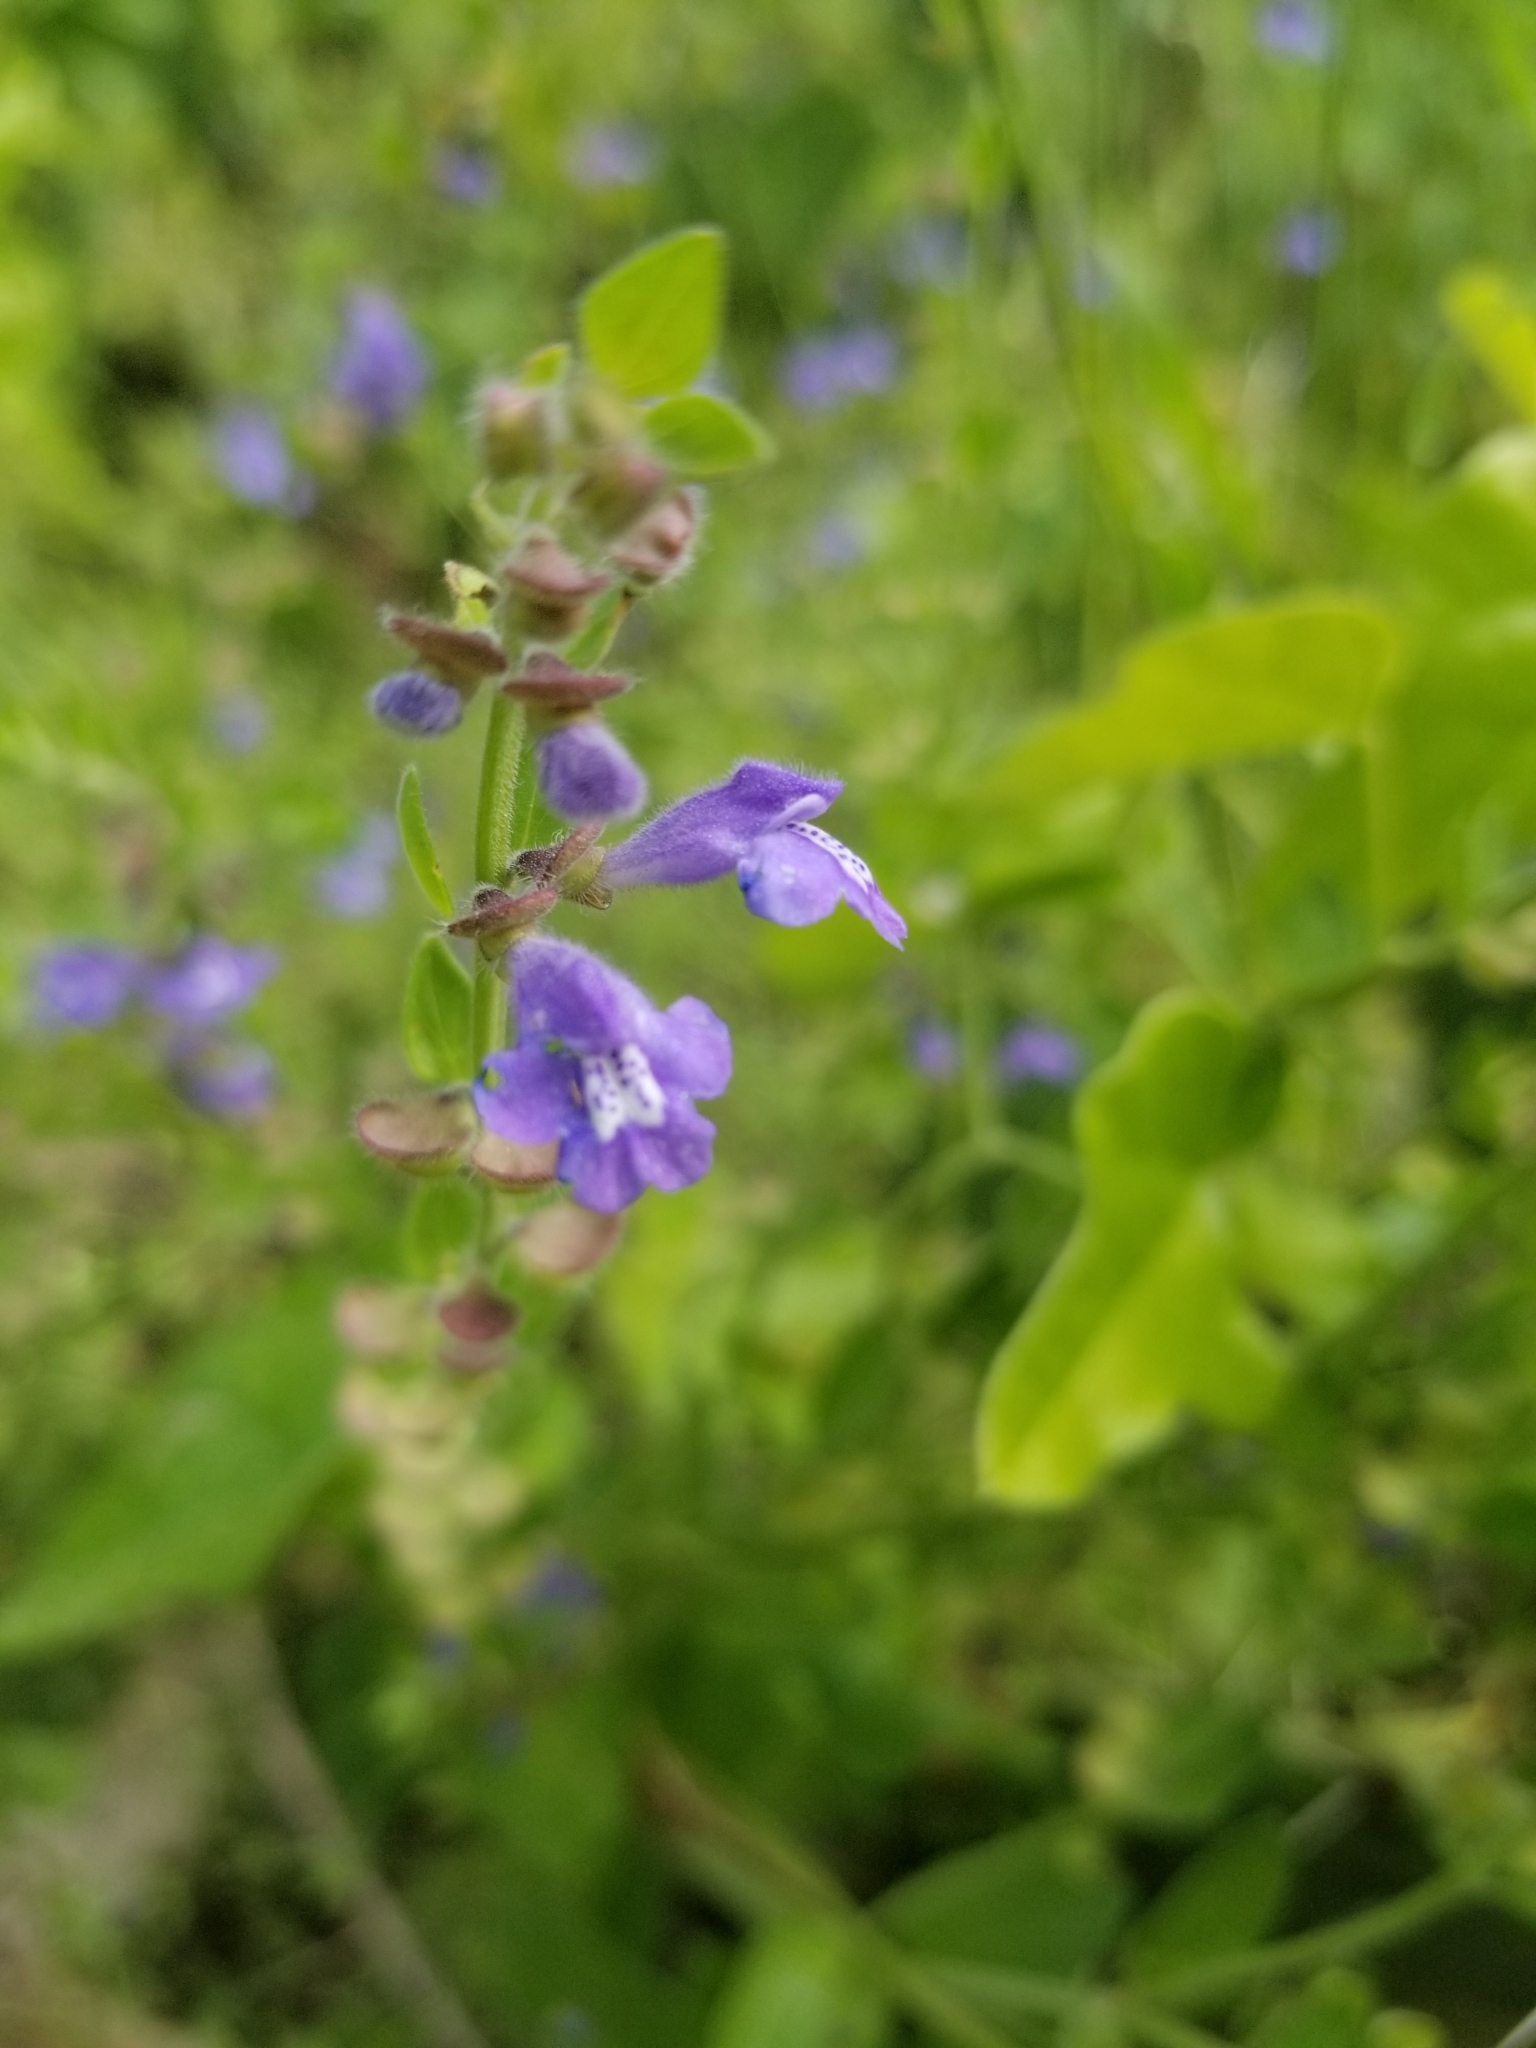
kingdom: Plantae
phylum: Tracheophyta
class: Magnoliopsida
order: Lamiales
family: Lamiaceae
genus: Scutellaria
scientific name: Scutellaria drummondii
